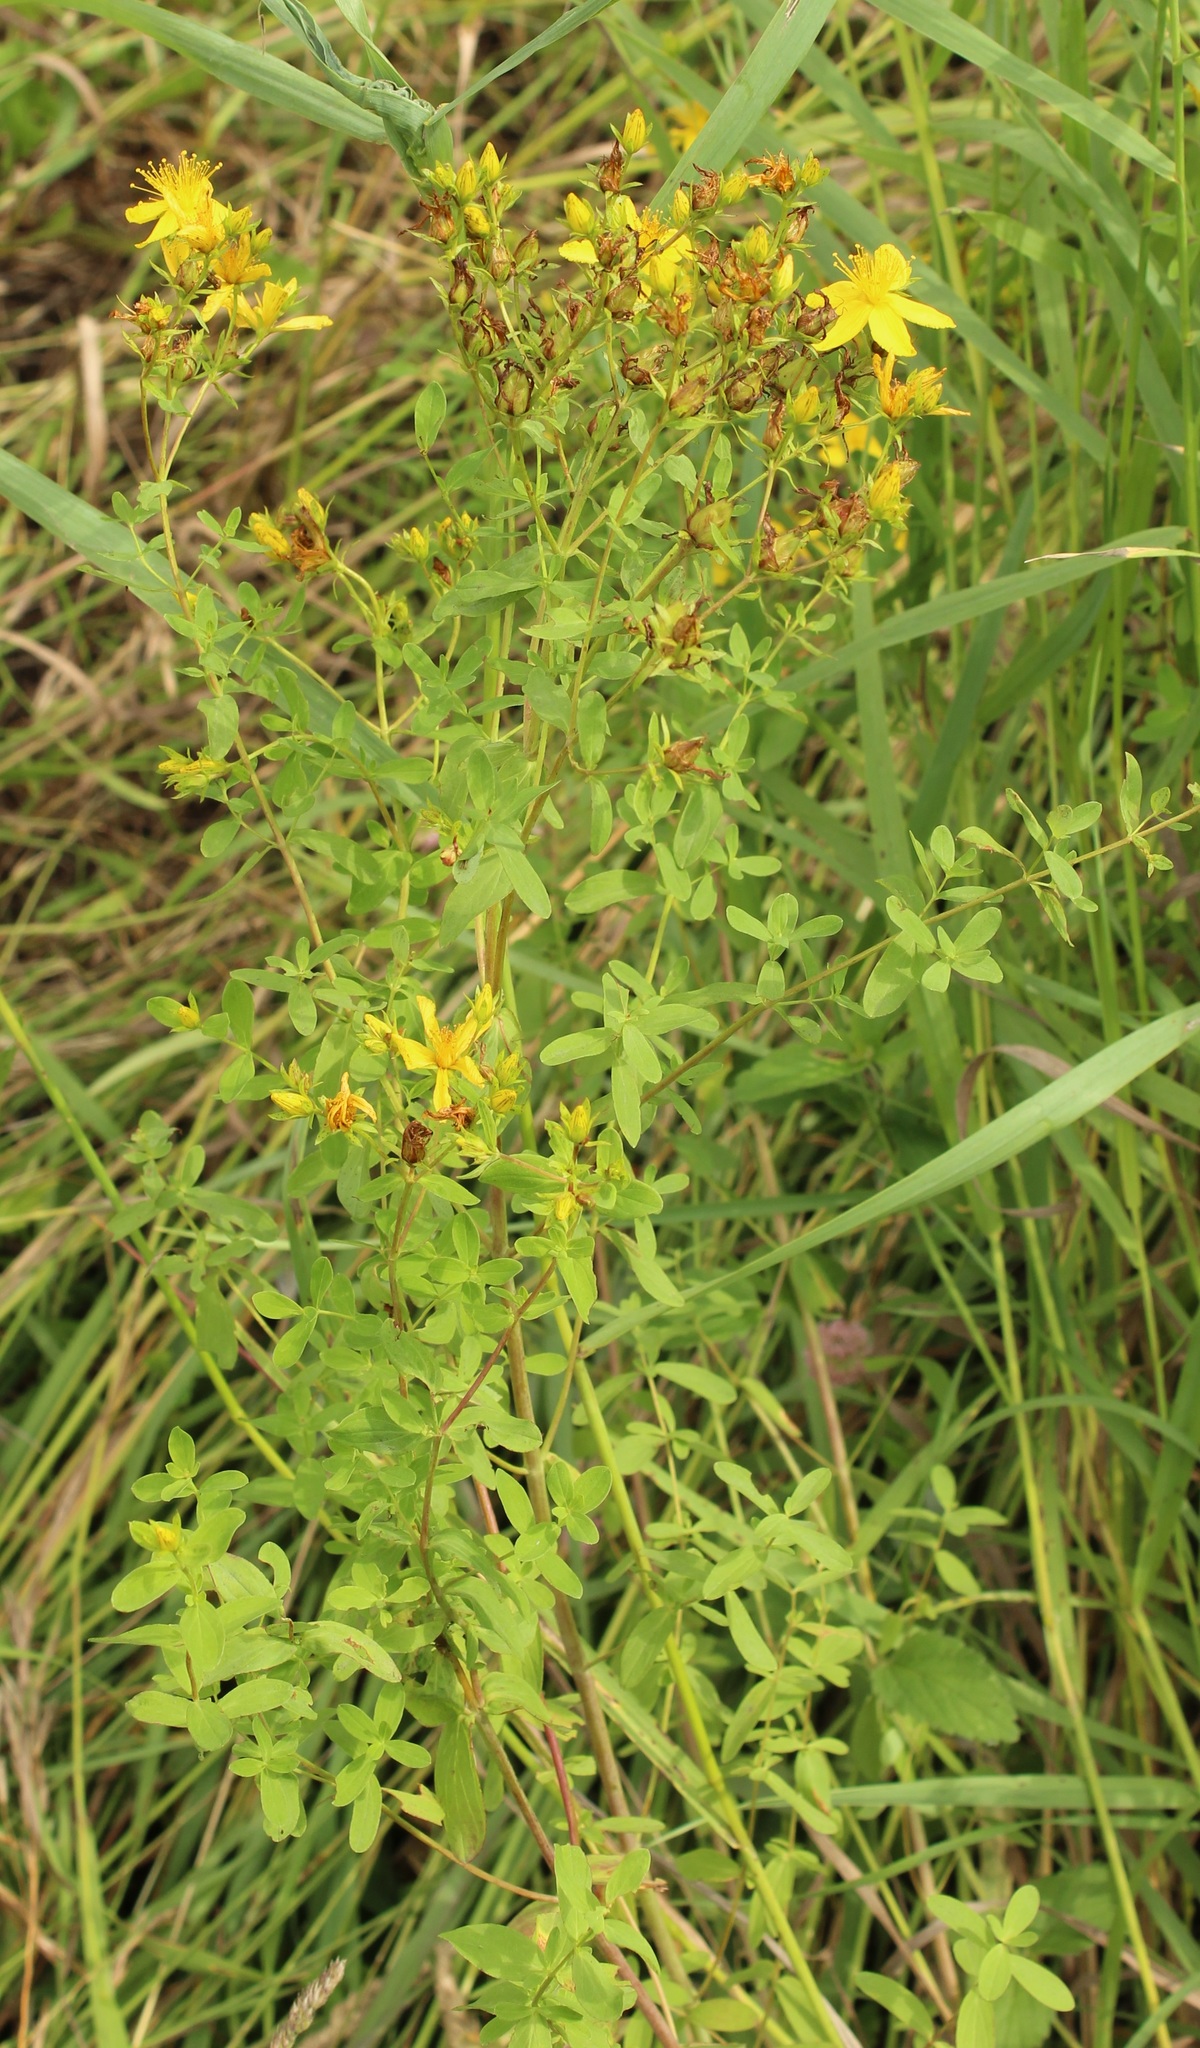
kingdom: Plantae
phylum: Tracheophyta
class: Magnoliopsida
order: Malpighiales
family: Hypericaceae
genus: Hypericum
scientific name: Hypericum perforatum
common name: Common st. johnswort
